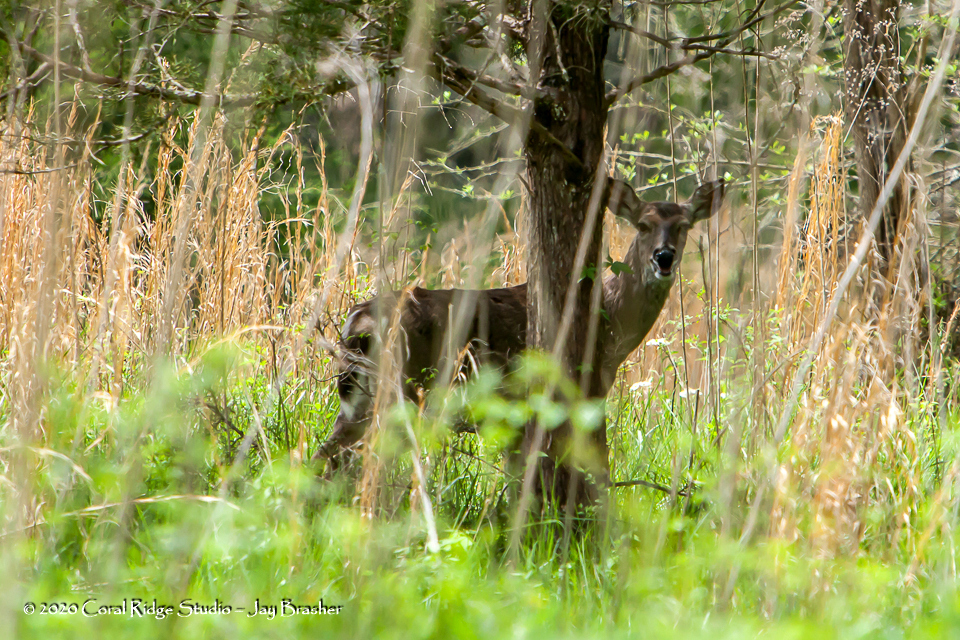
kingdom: Animalia
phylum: Chordata
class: Mammalia
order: Artiodactyla
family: Cervidae
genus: Odocoileus
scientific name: Odocoileus virginianus
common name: White-tailed deer
